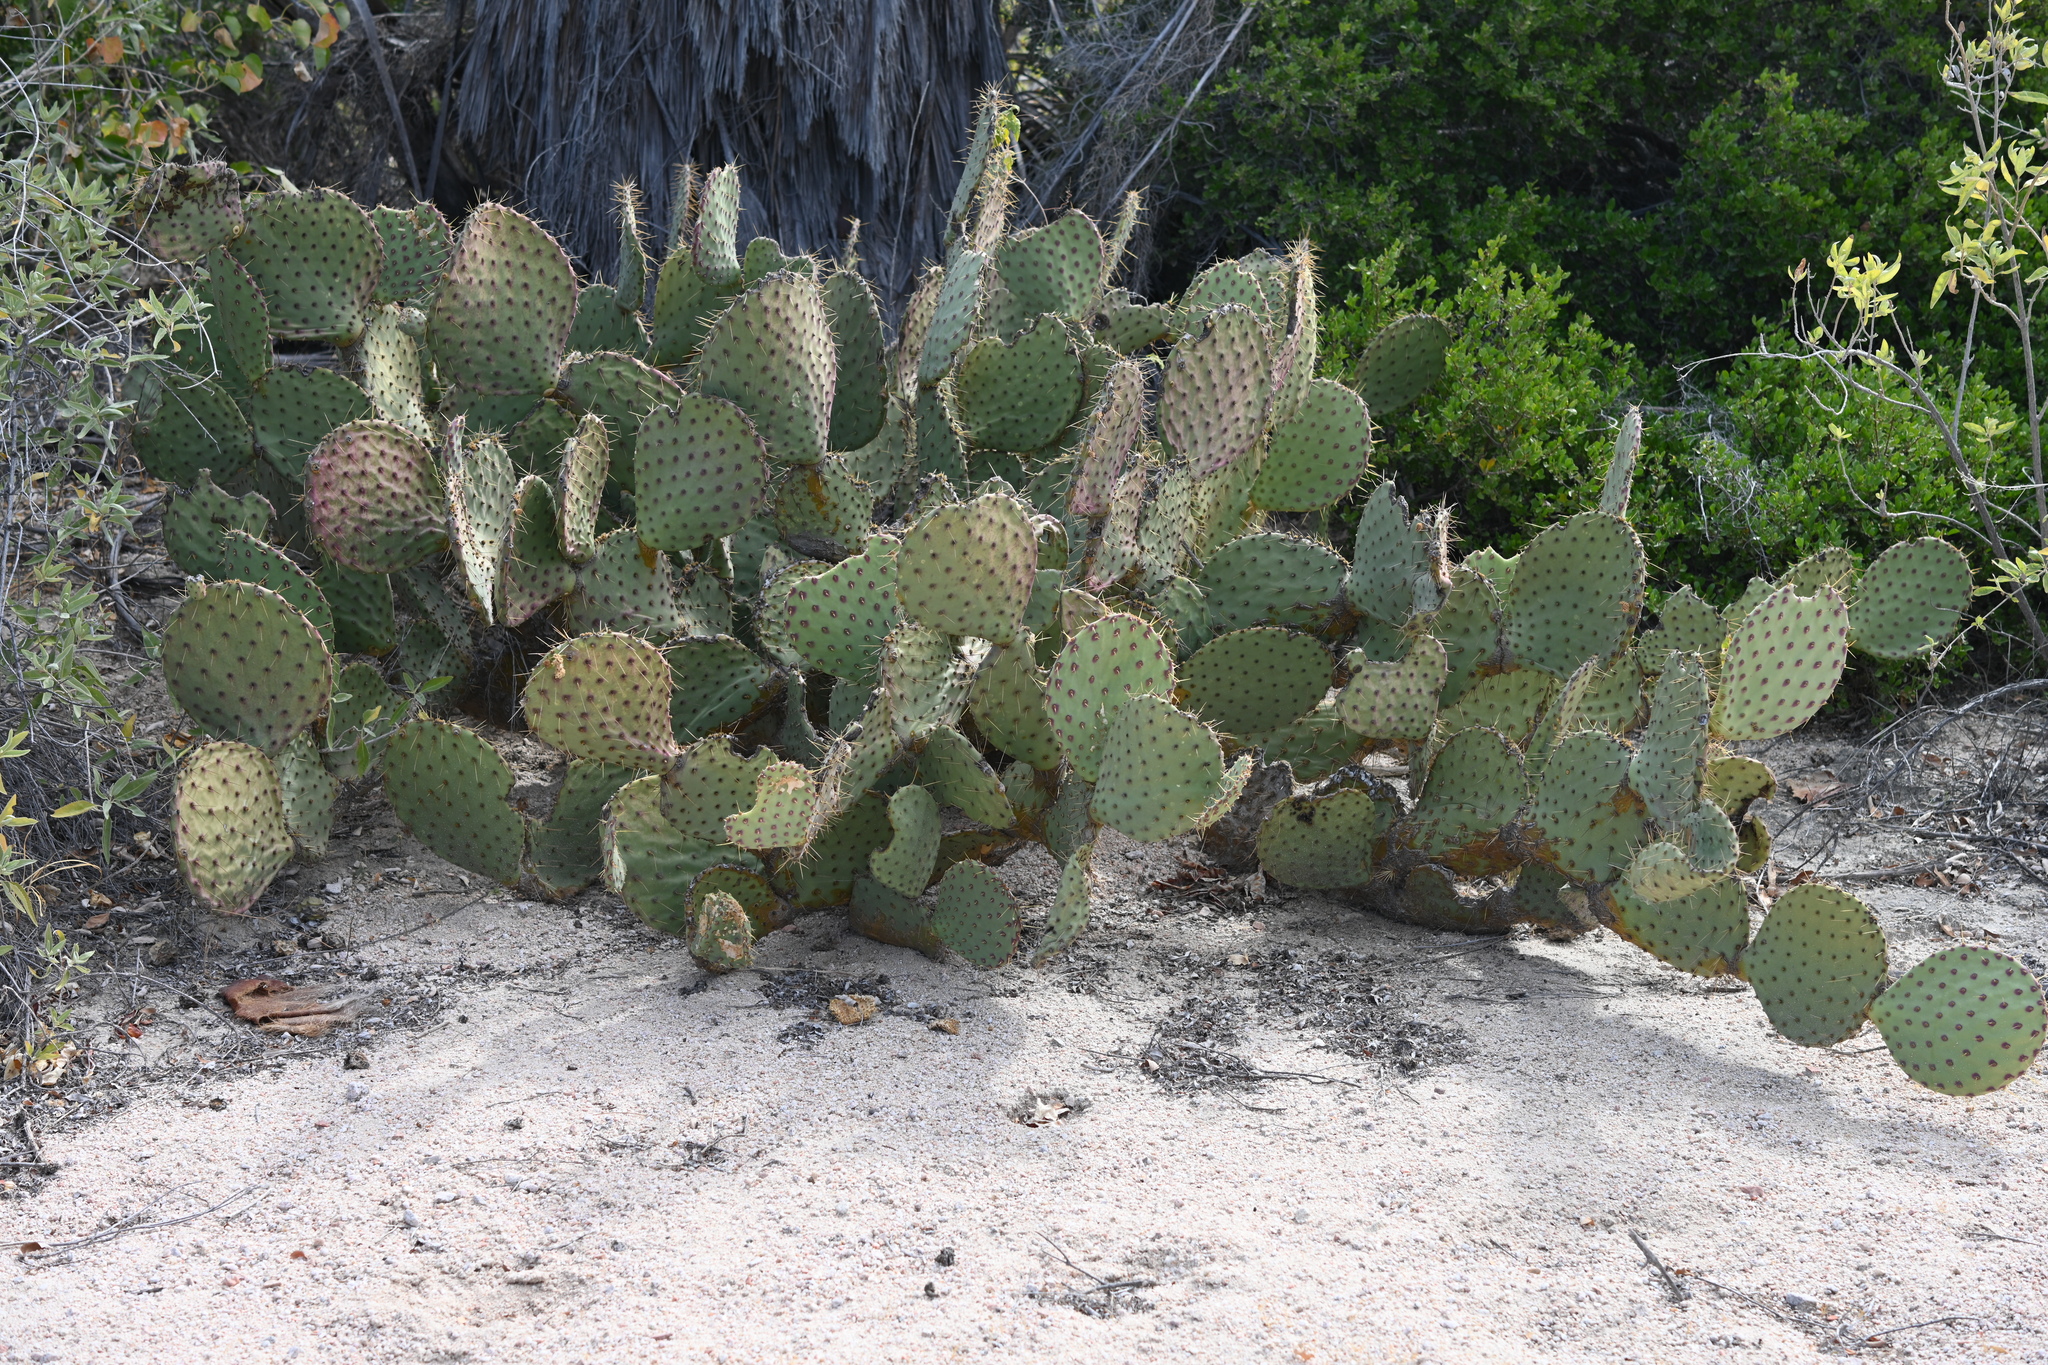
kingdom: Plantae
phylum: Tracheophyta
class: Magnoliopsida
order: Caryophyllales
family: Cactaceae
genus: Opuntia
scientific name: Opuntia caboensis
